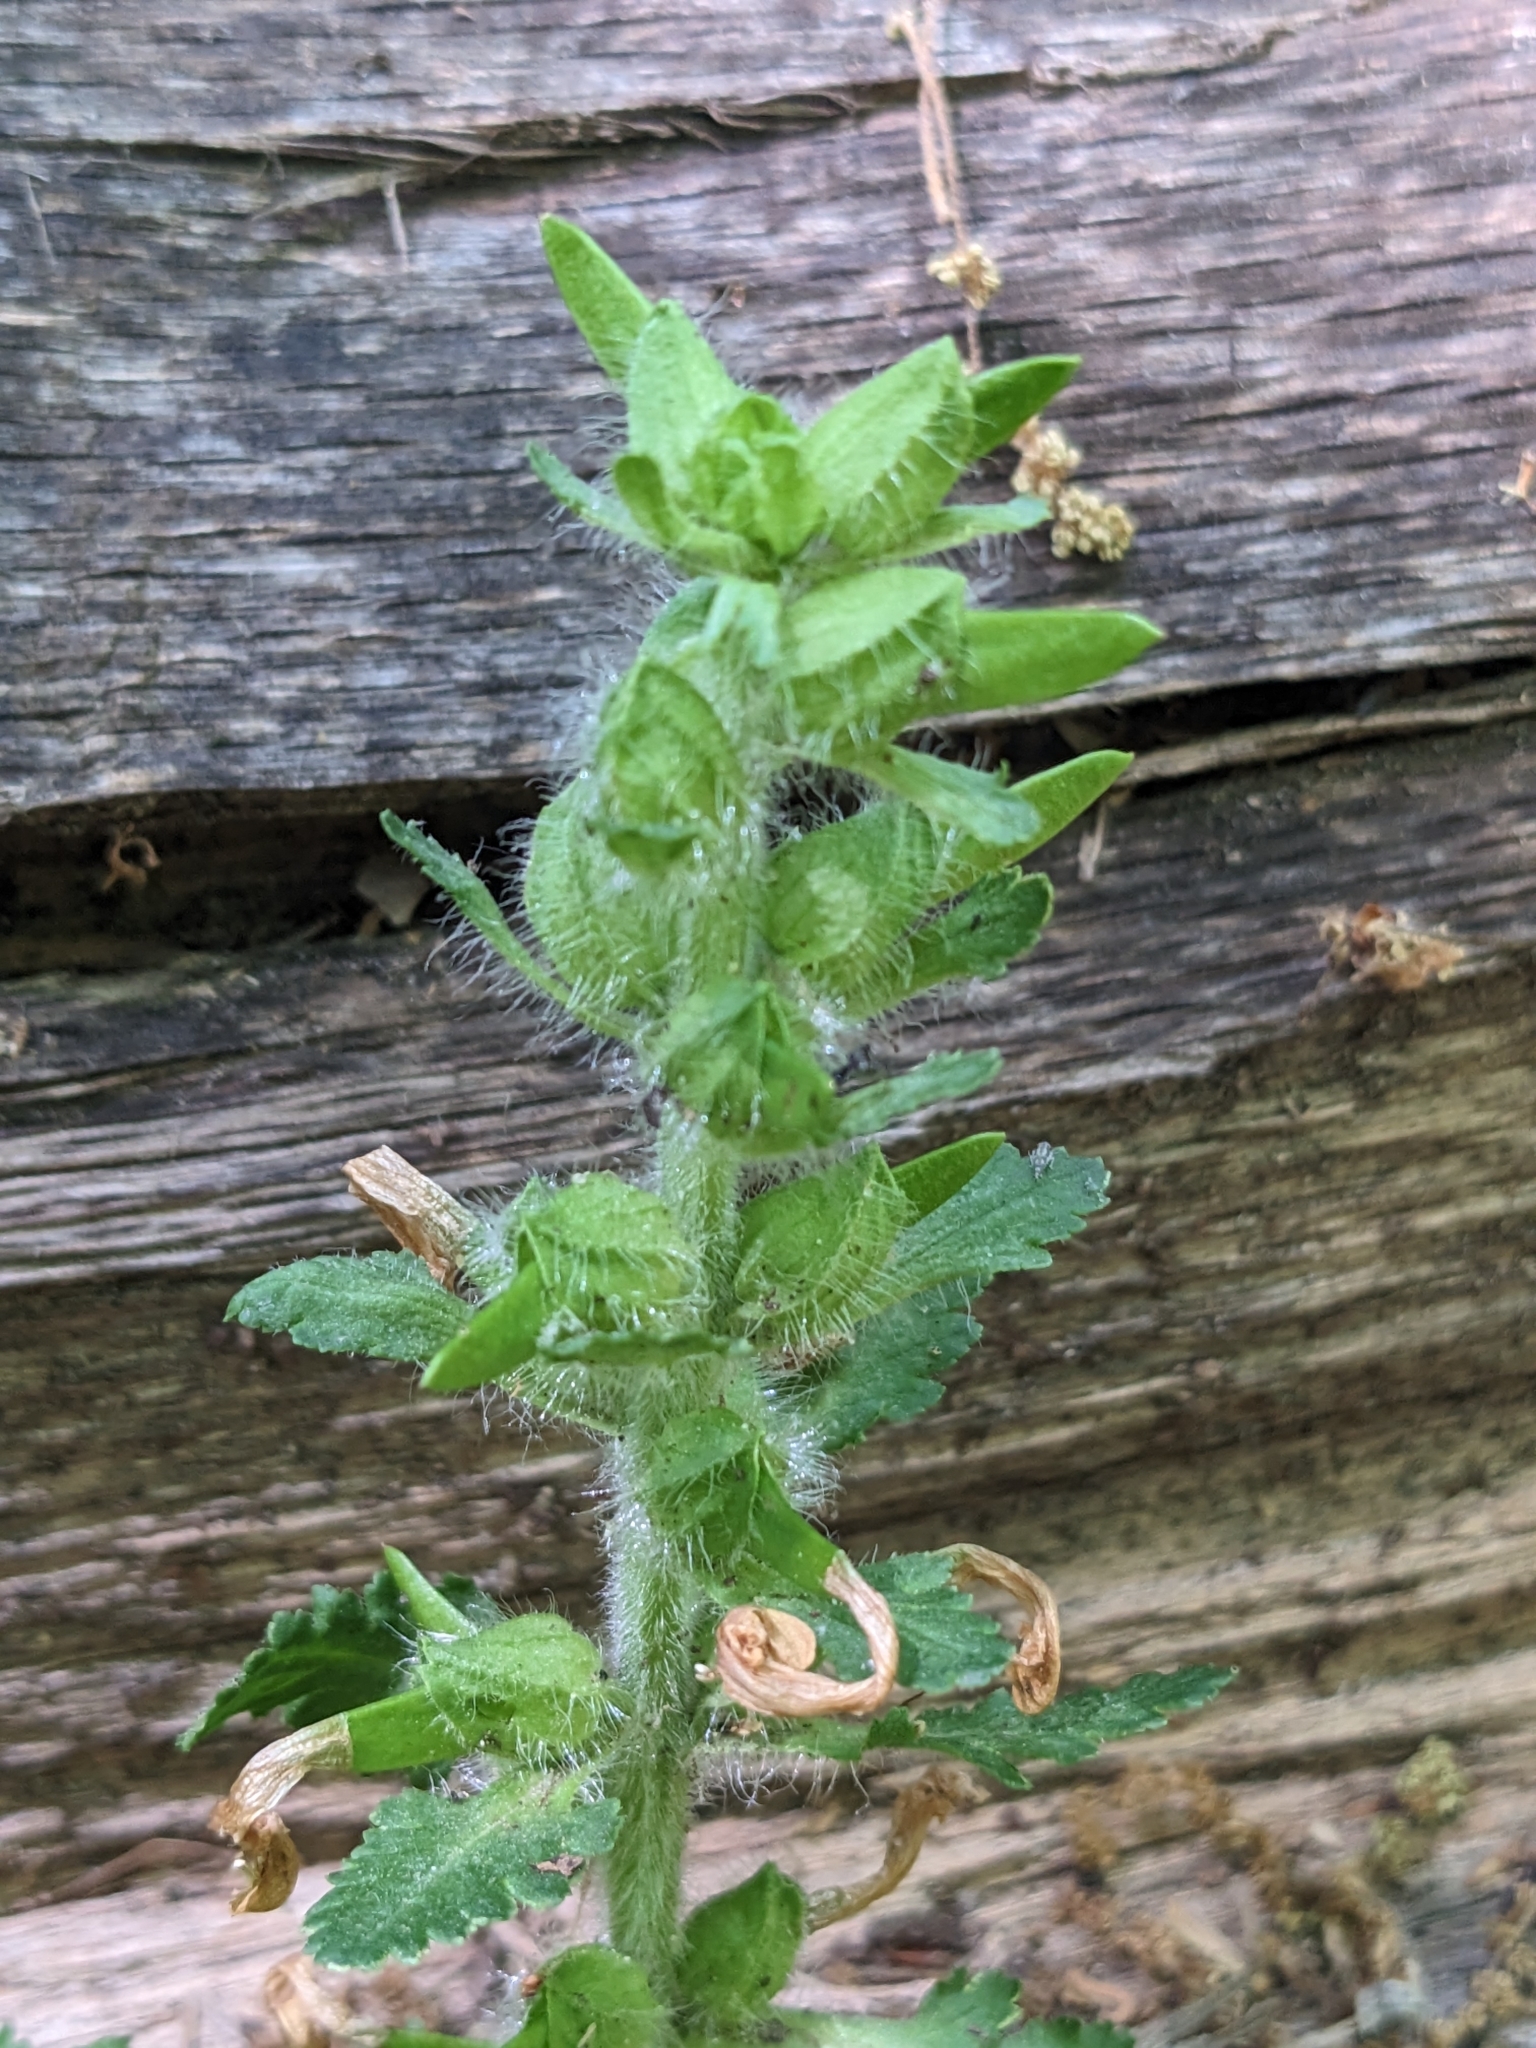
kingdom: Plantae
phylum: Tracheophyta
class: Magnoliopsida
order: Lamiales
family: Orobanchaceae
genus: Pedicularis
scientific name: Pedicularis canadensis
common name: Early lousewort
